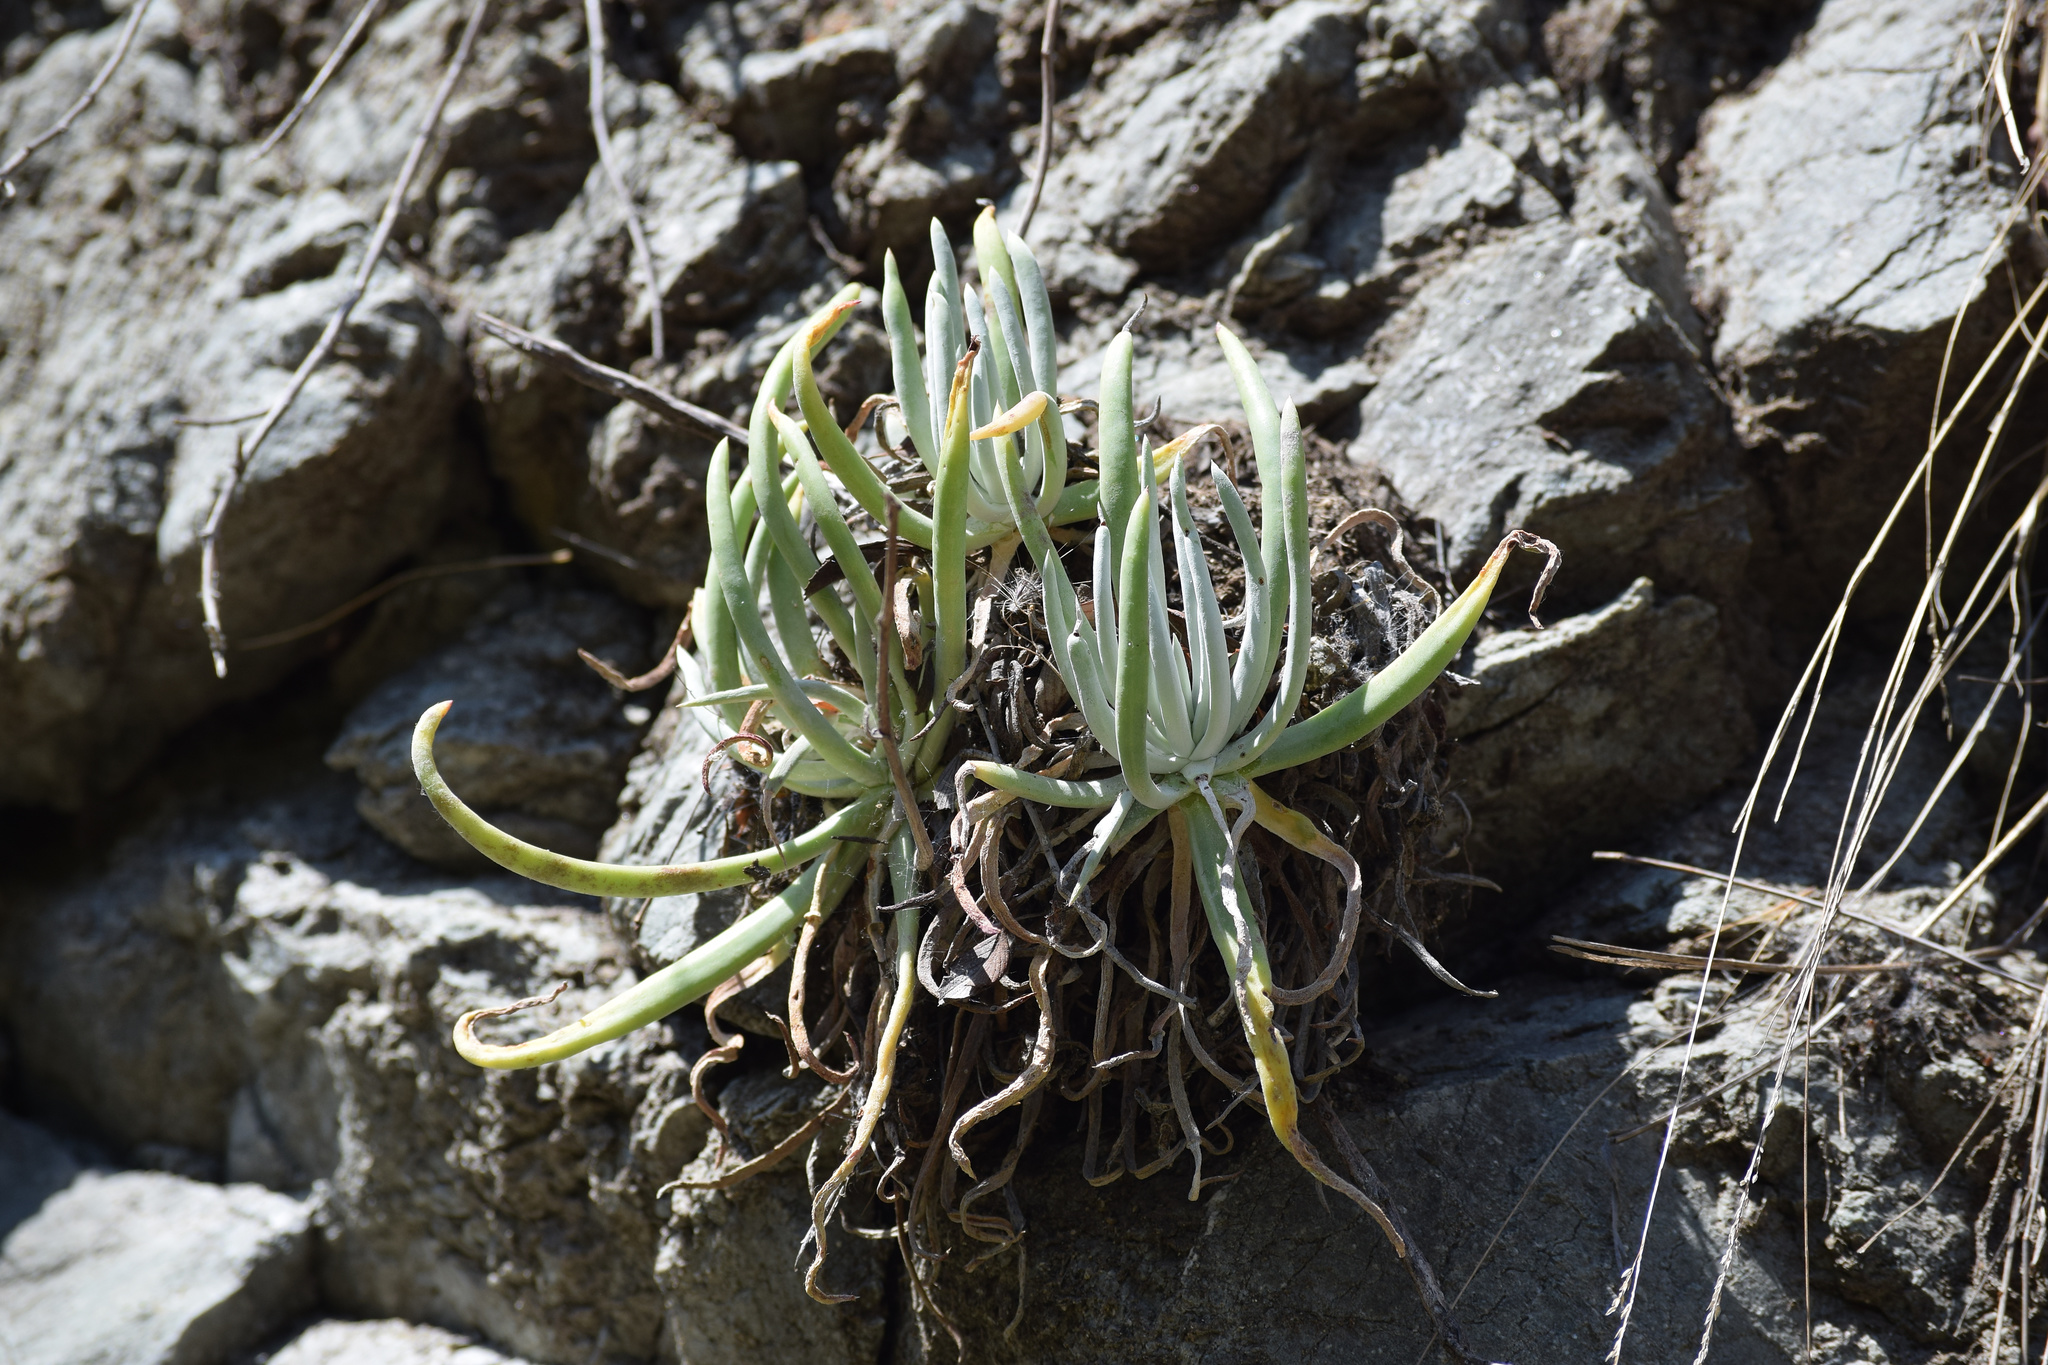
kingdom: Plantae
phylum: Tracheophyta
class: Magnoliopsida
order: Saxifragales
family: Crassulaceae
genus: Dudleya
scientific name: Dudleya densiflora
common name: San gabriel mountains dudleya
